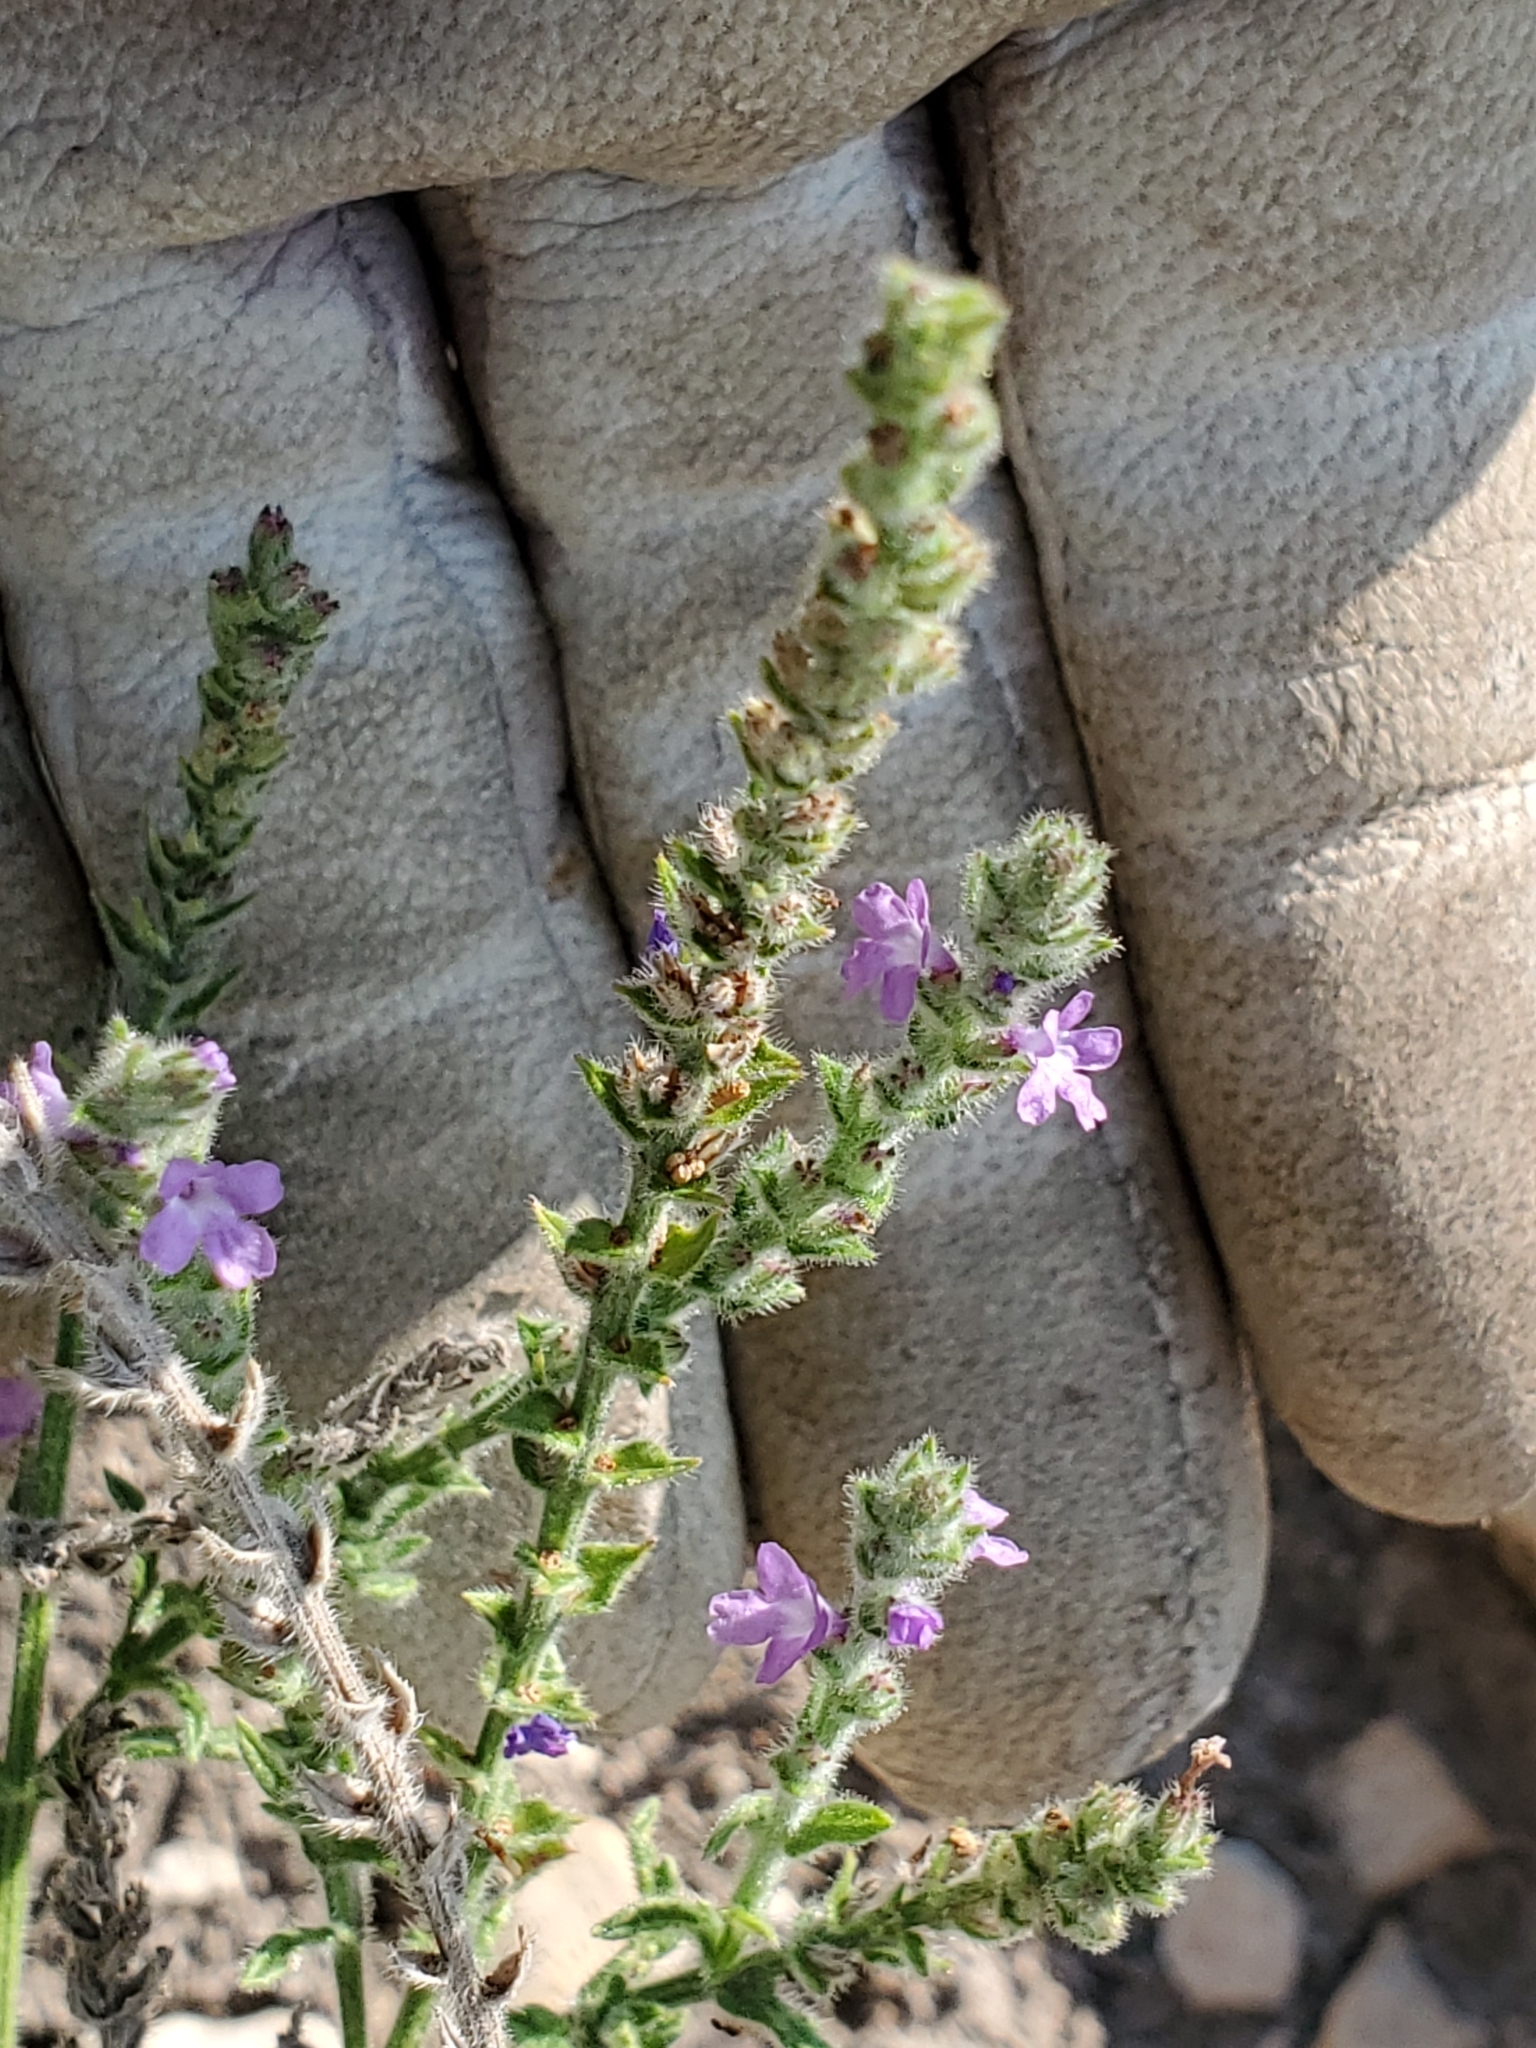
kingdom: Plantae
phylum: Tracheophyta
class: Magnoliopsida
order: Lamiales
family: Verbenaceae
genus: Verbena
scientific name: Verbena canescens
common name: Gray vervain
